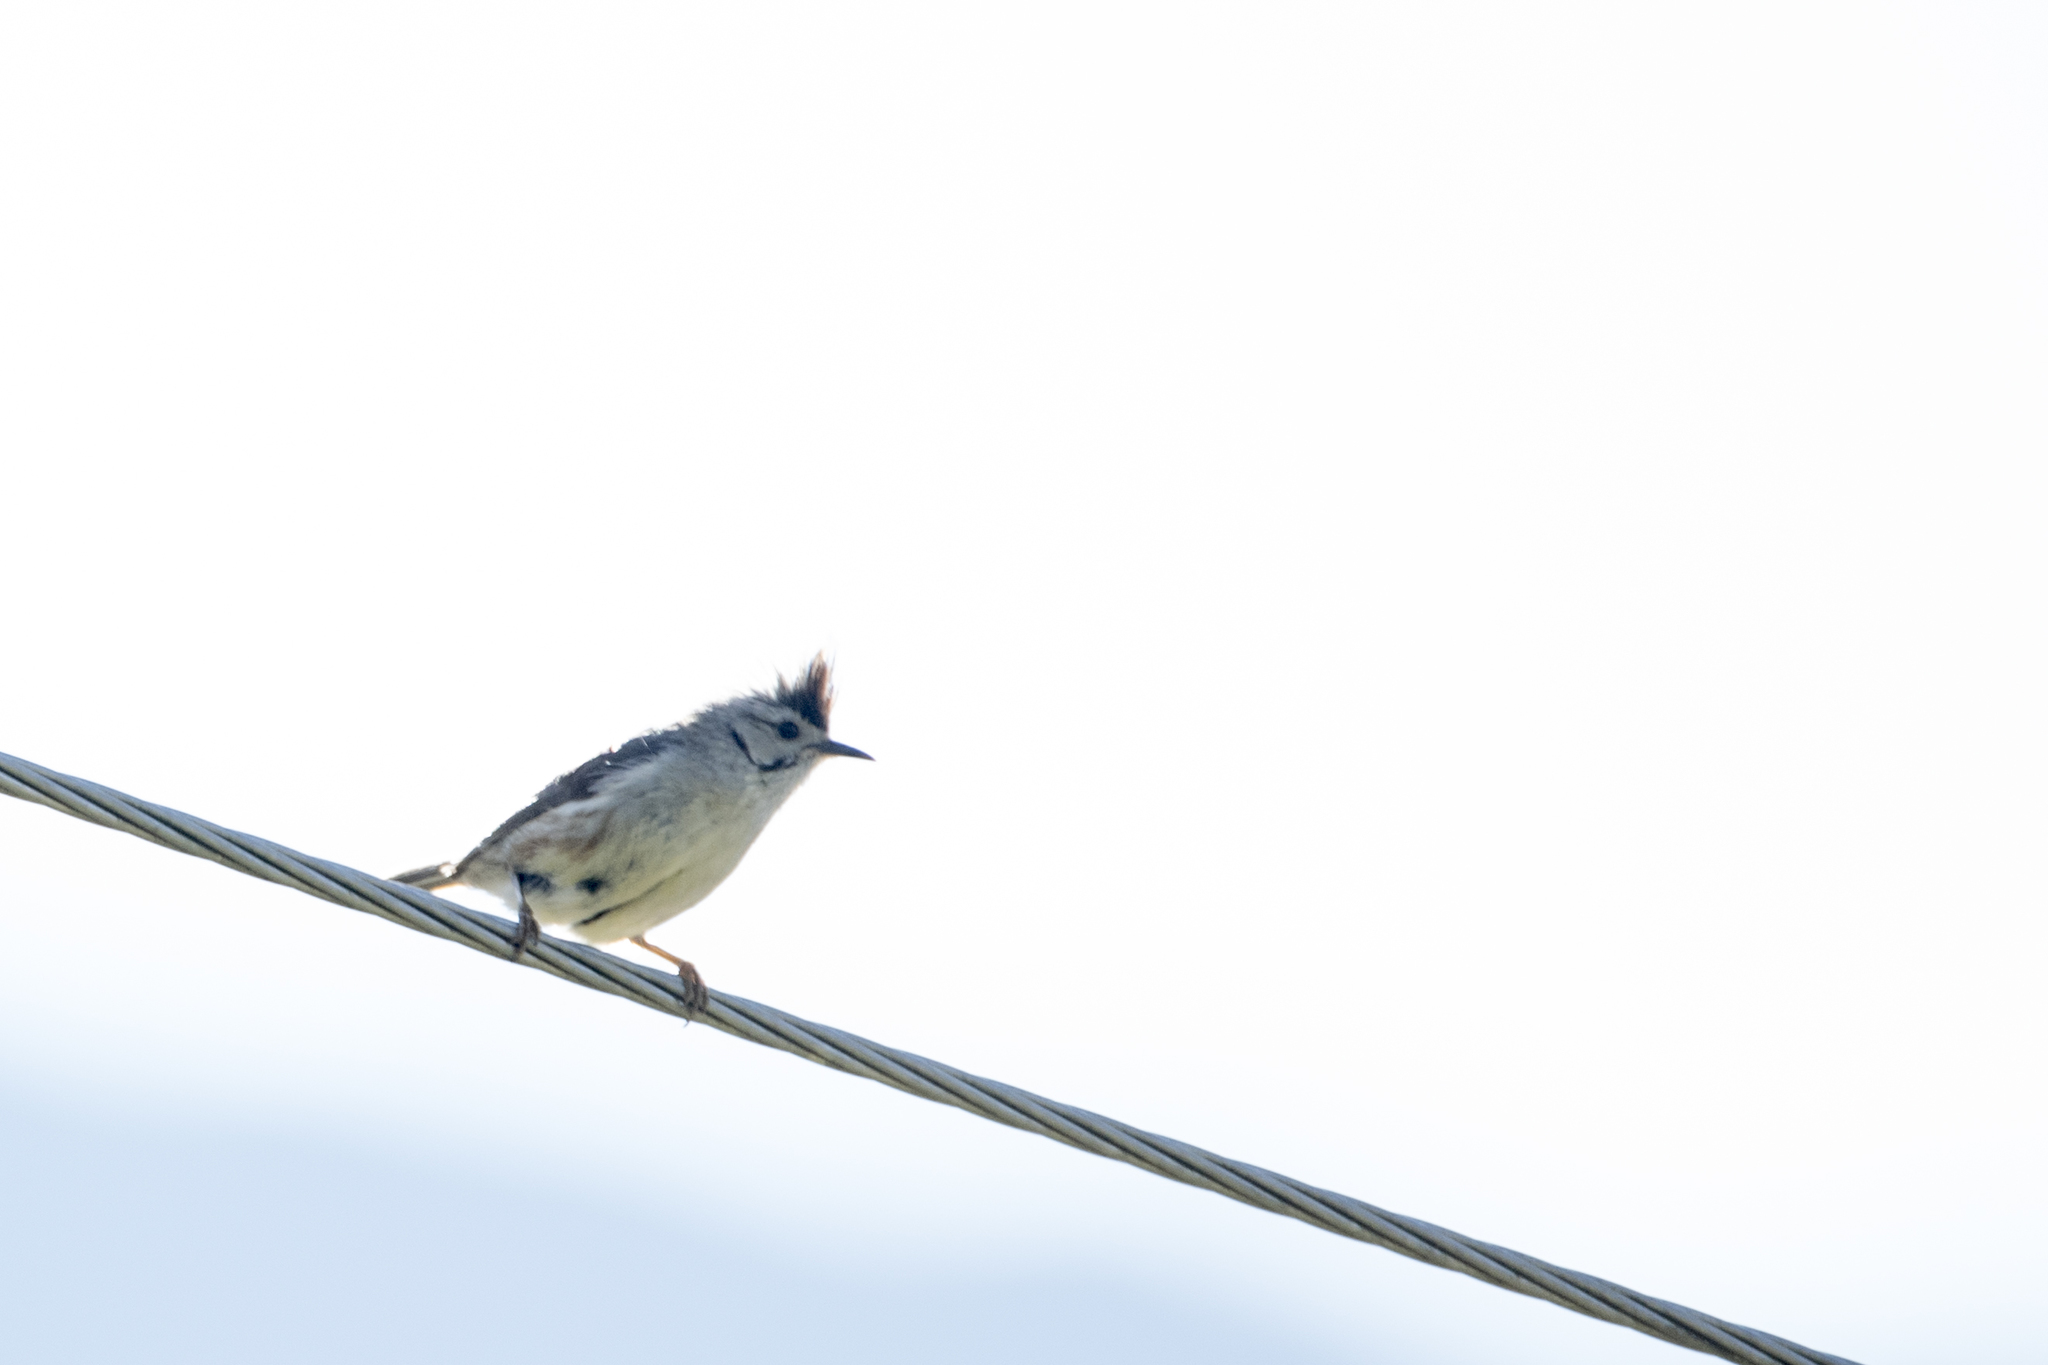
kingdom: Animalia
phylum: Chordata
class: Aves
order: Passeriformes
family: Zosteropidae
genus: Yuhina
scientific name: Yuhina brunneiceps
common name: Taiwan yuhina
